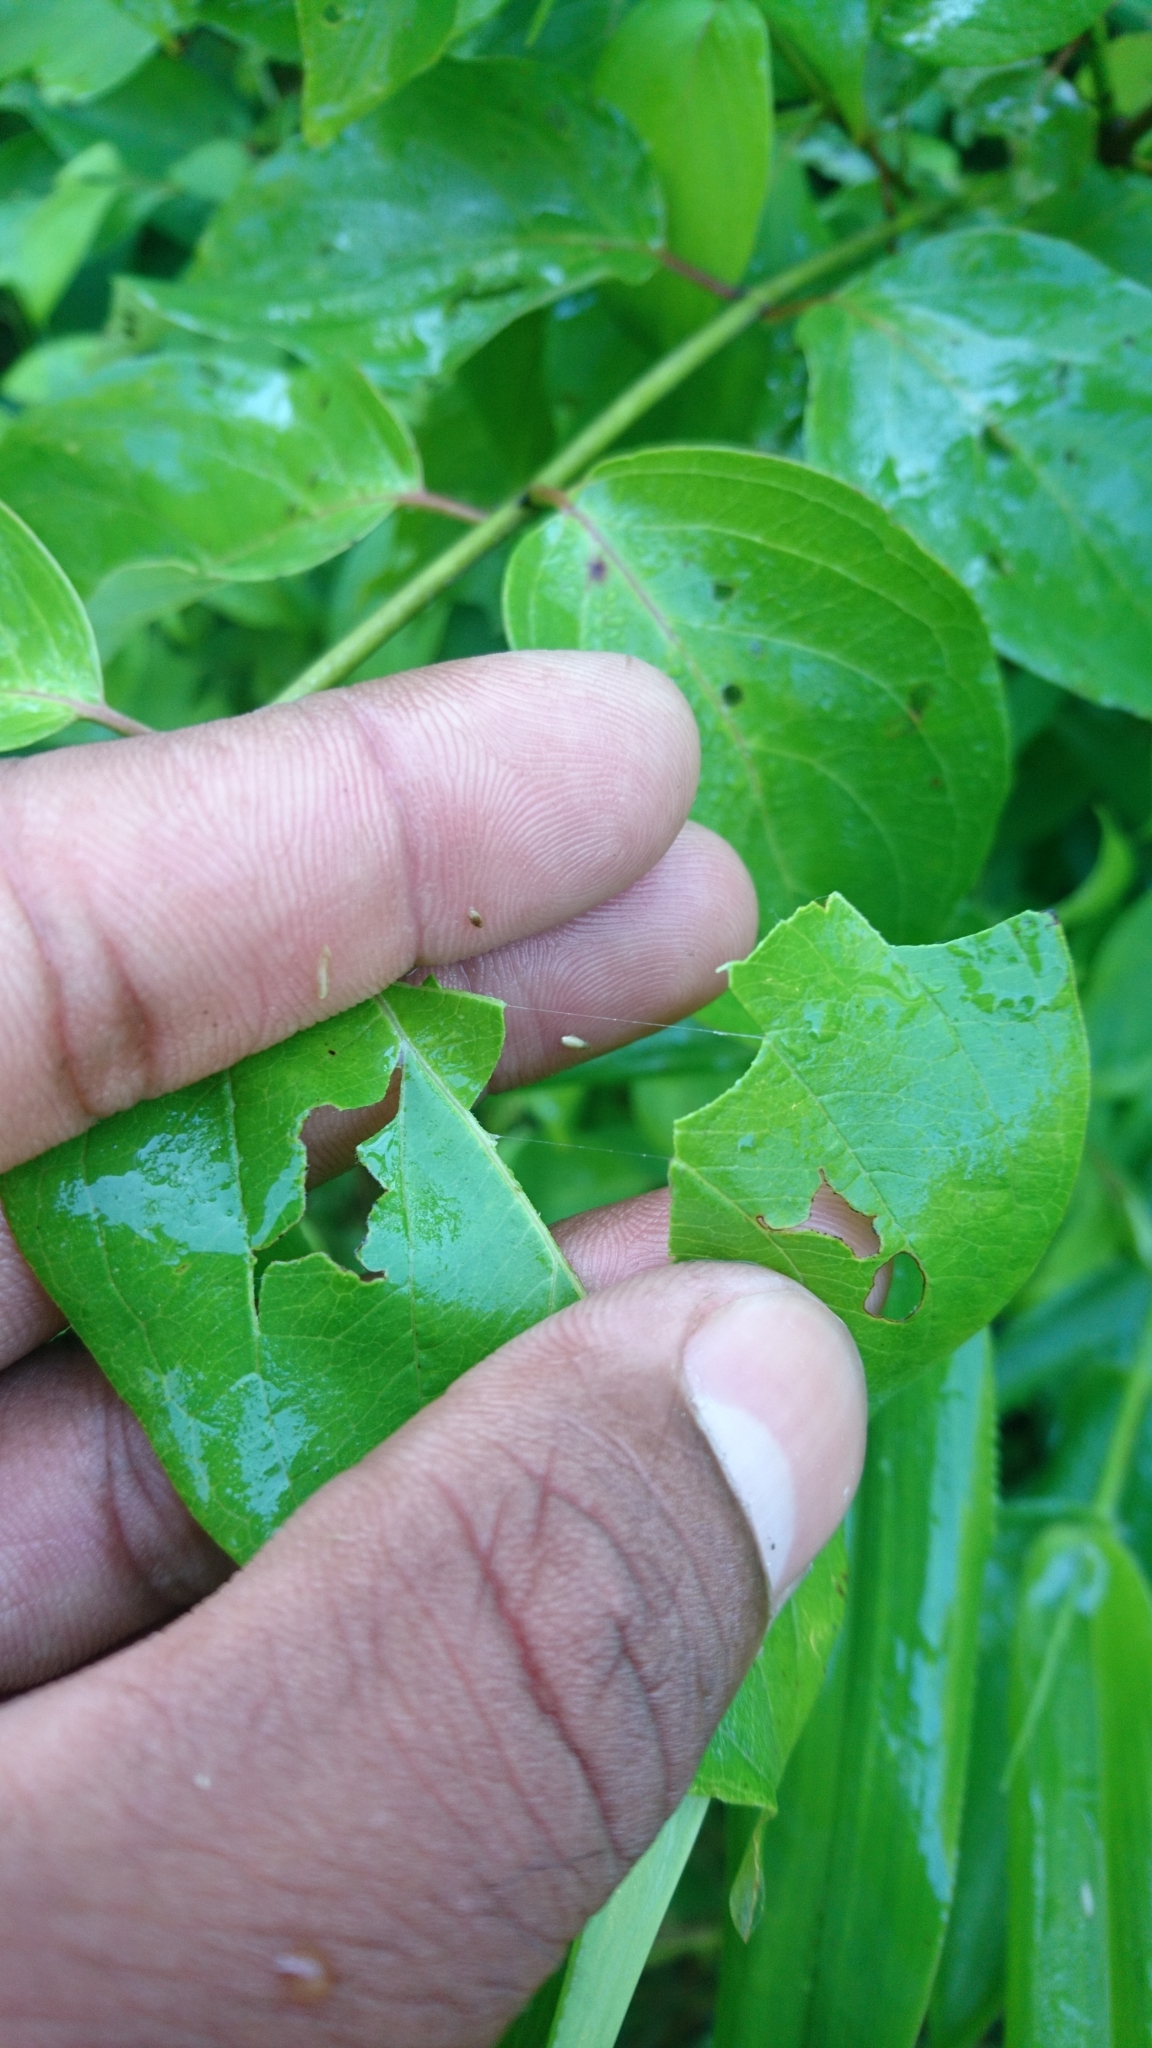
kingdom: Plantae
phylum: Tracheophyta
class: Magnoliopsida
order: Cornales
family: Cornaceae
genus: Cornus
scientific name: Cornus amomum
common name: Silky dogwood
